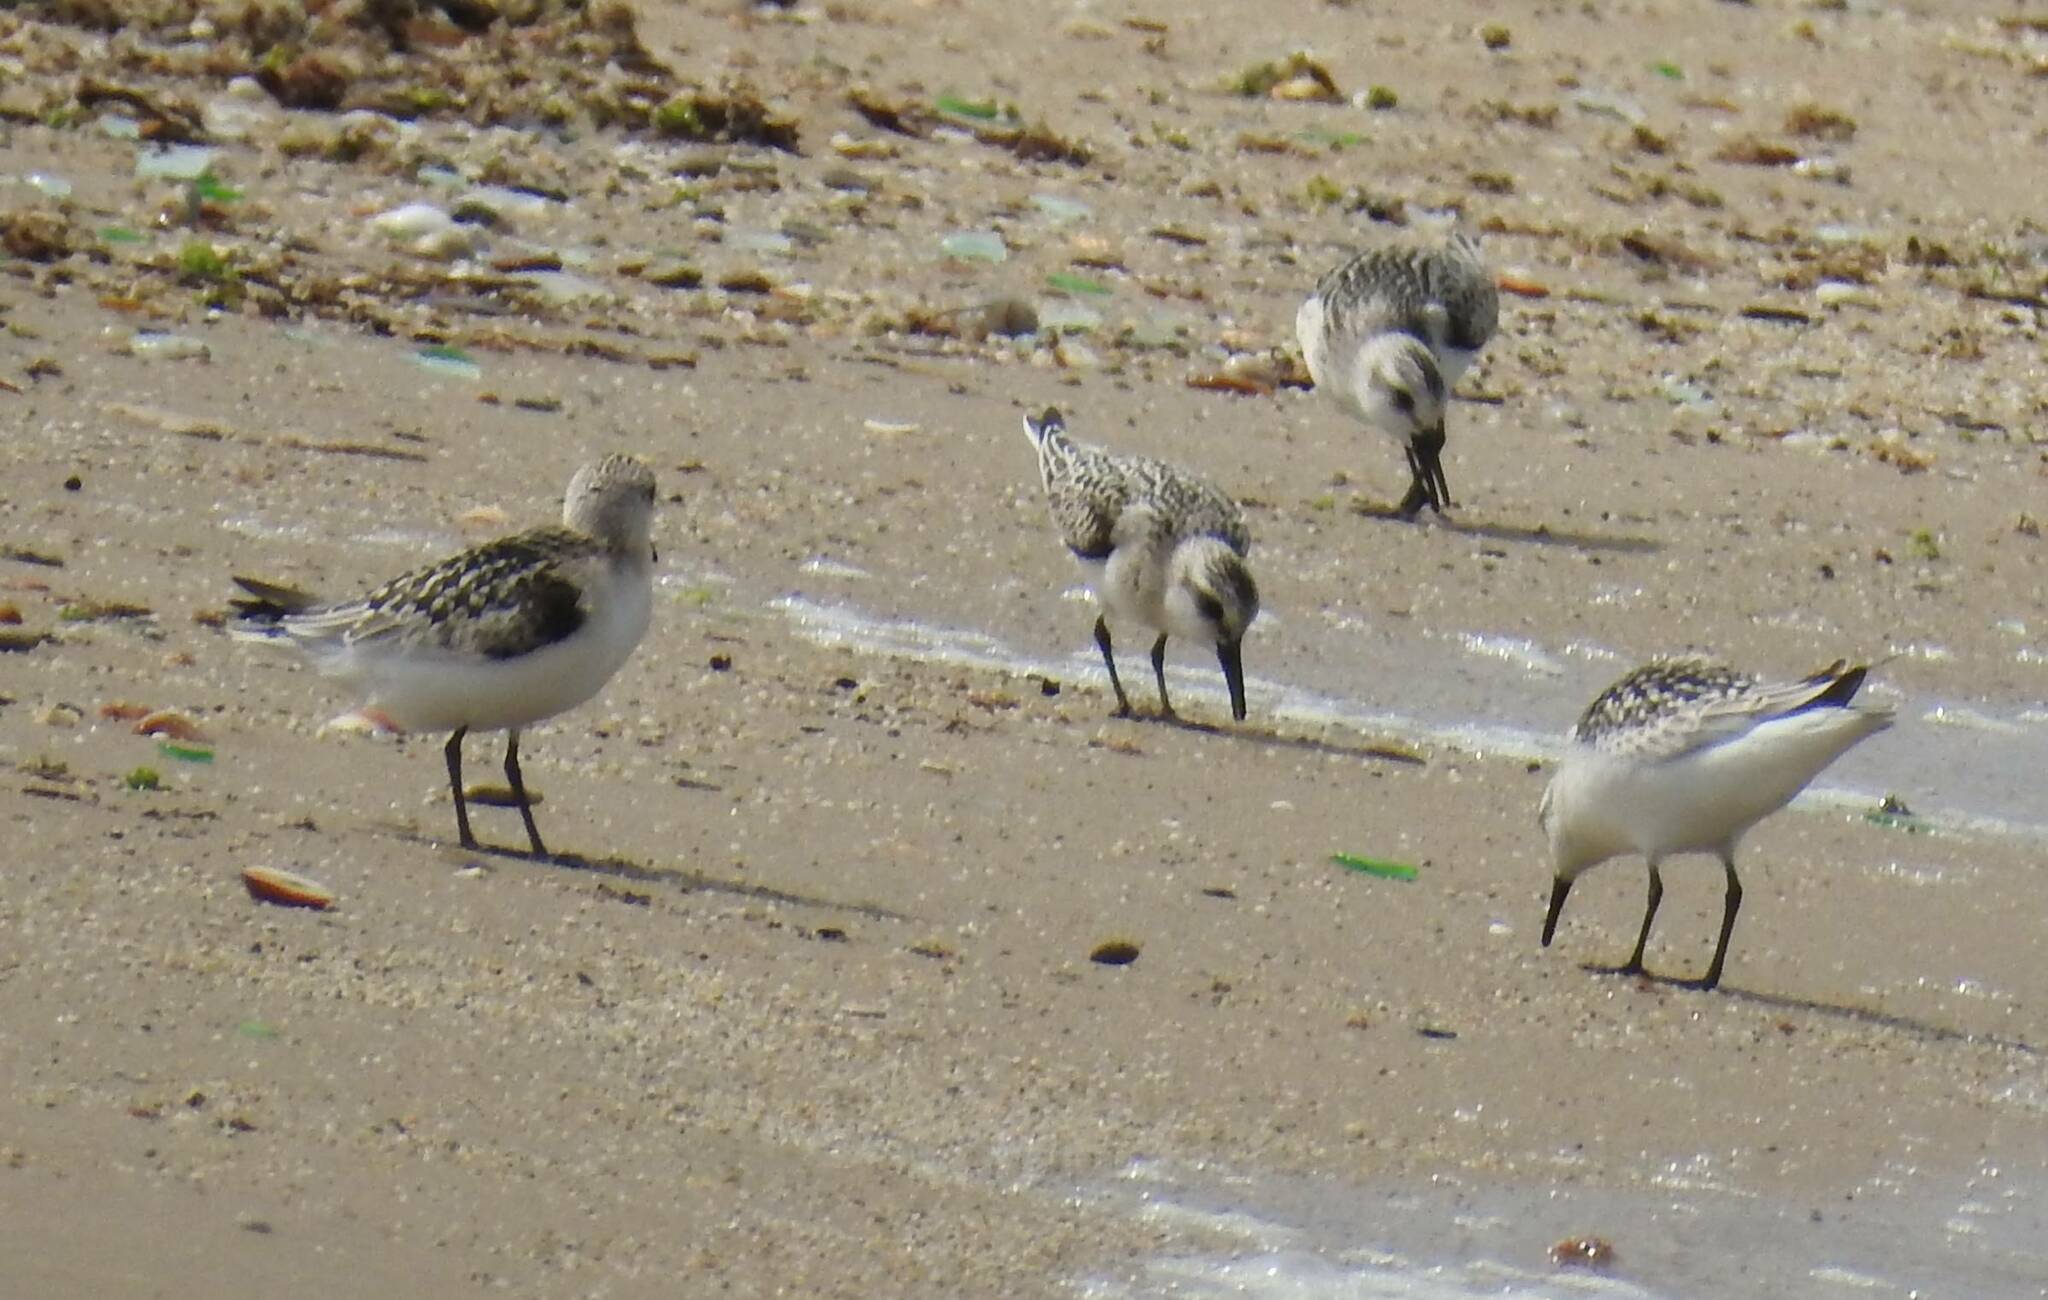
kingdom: Animalia
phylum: Chordata
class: Aves
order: Charadriiformes
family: Scolopacidae
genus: Calidris
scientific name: Calidris alba
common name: Sanderling
